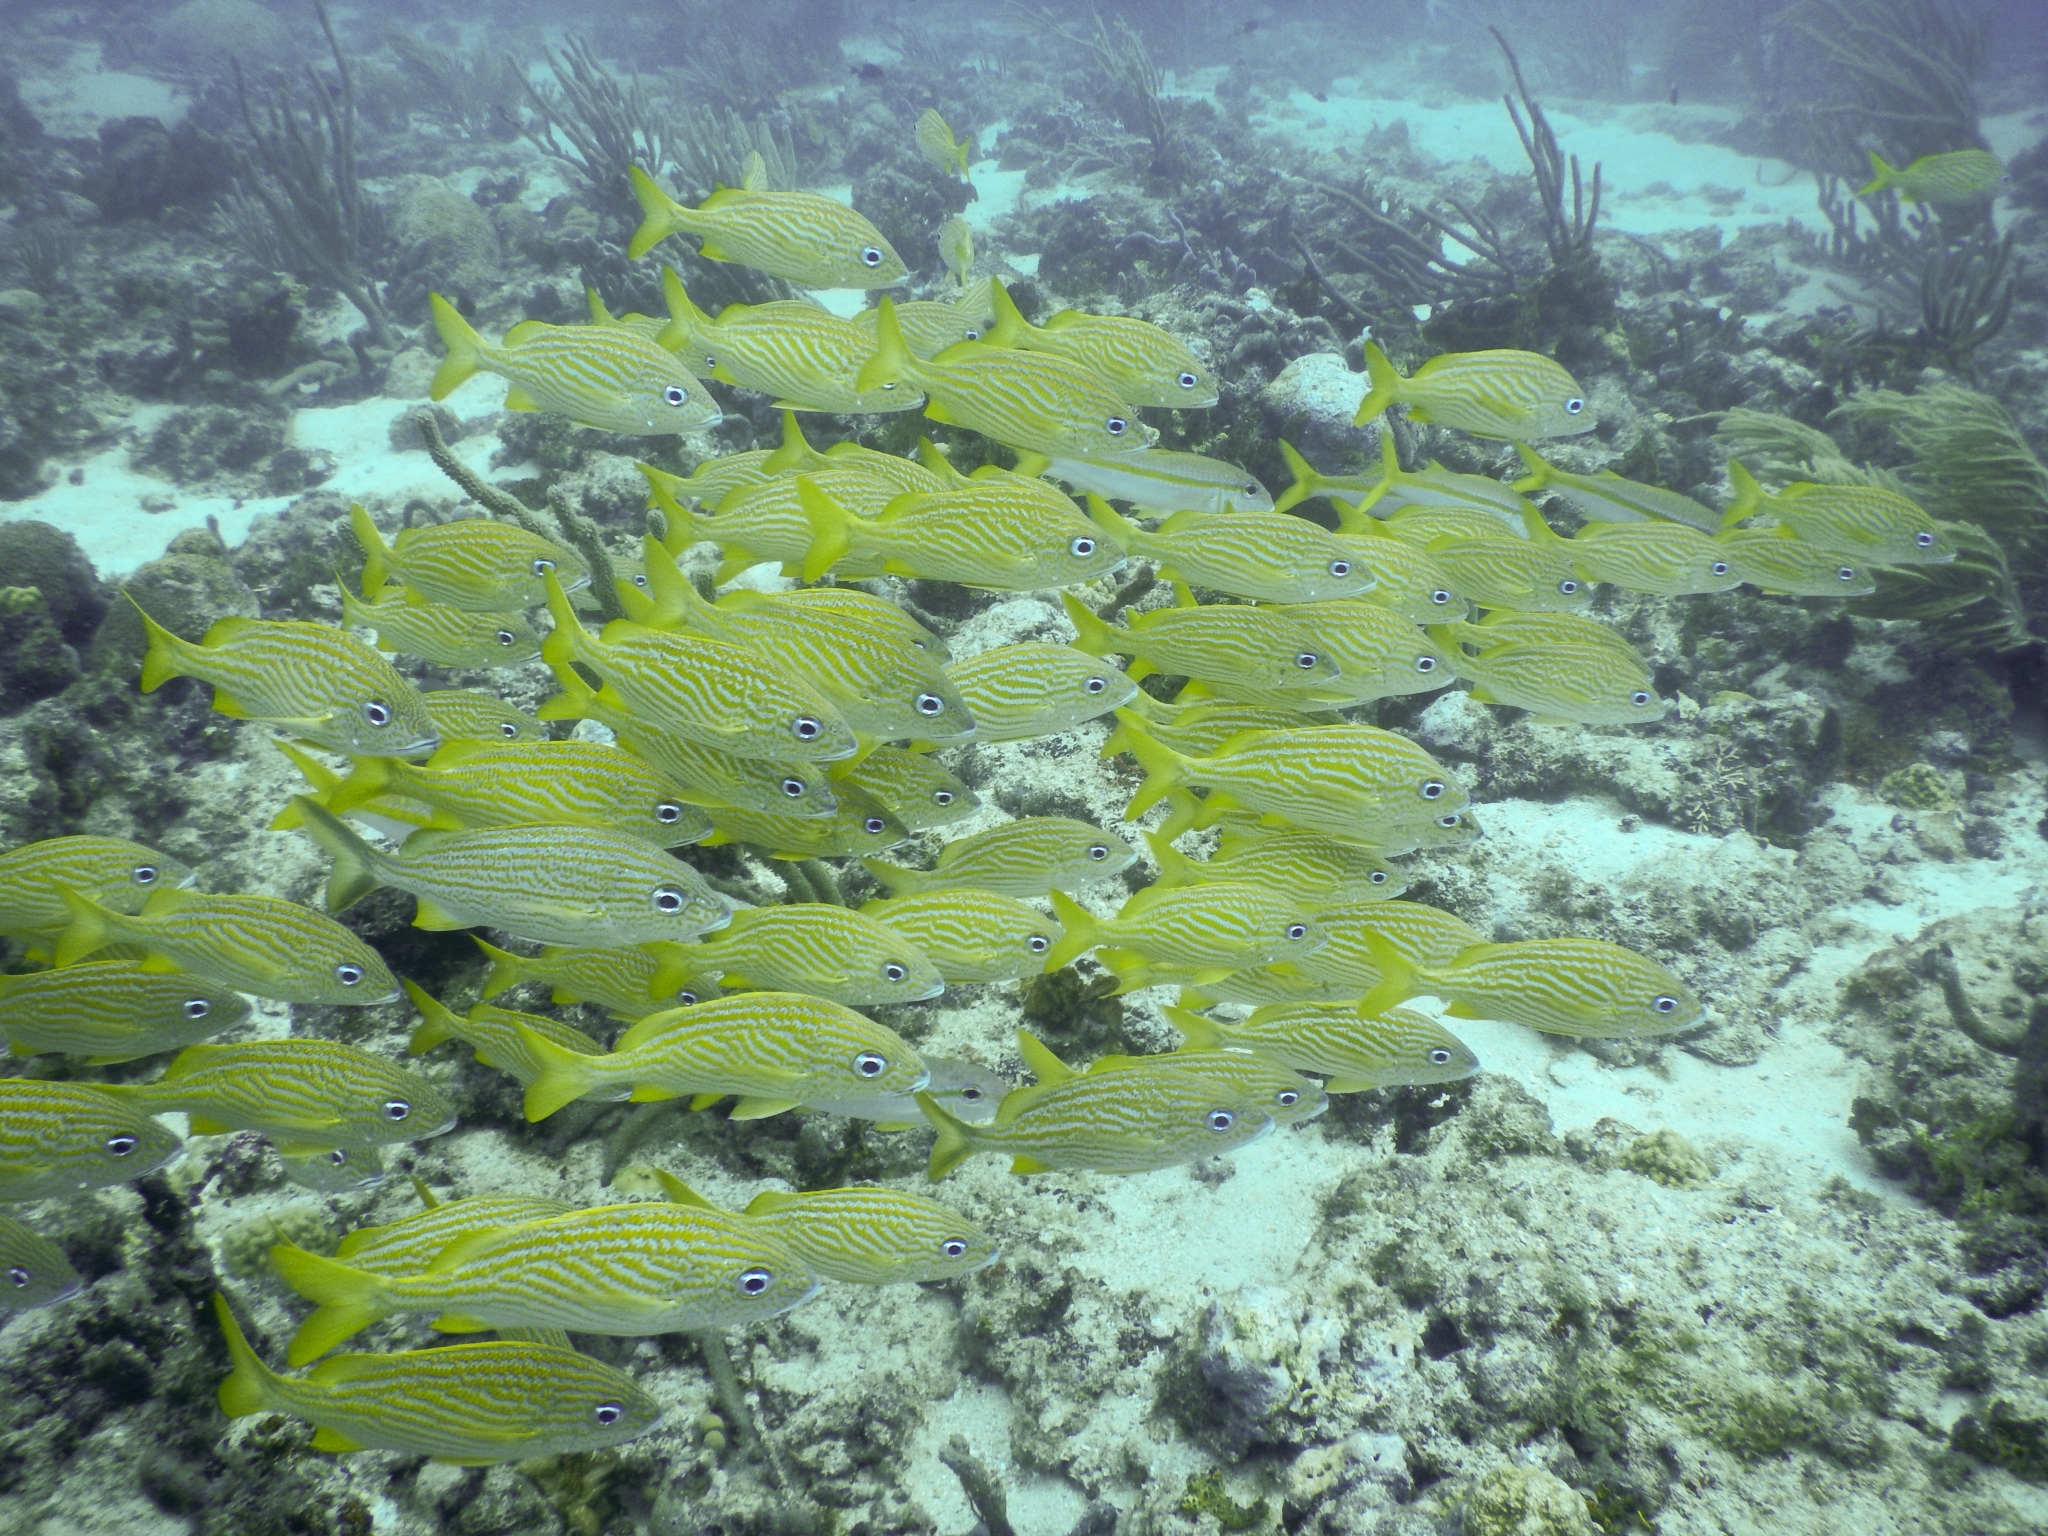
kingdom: Animalia
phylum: Chordata
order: Perciformes
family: Haemulidae
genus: Haemulon
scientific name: Haemulon flavolineatum
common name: French grunt
